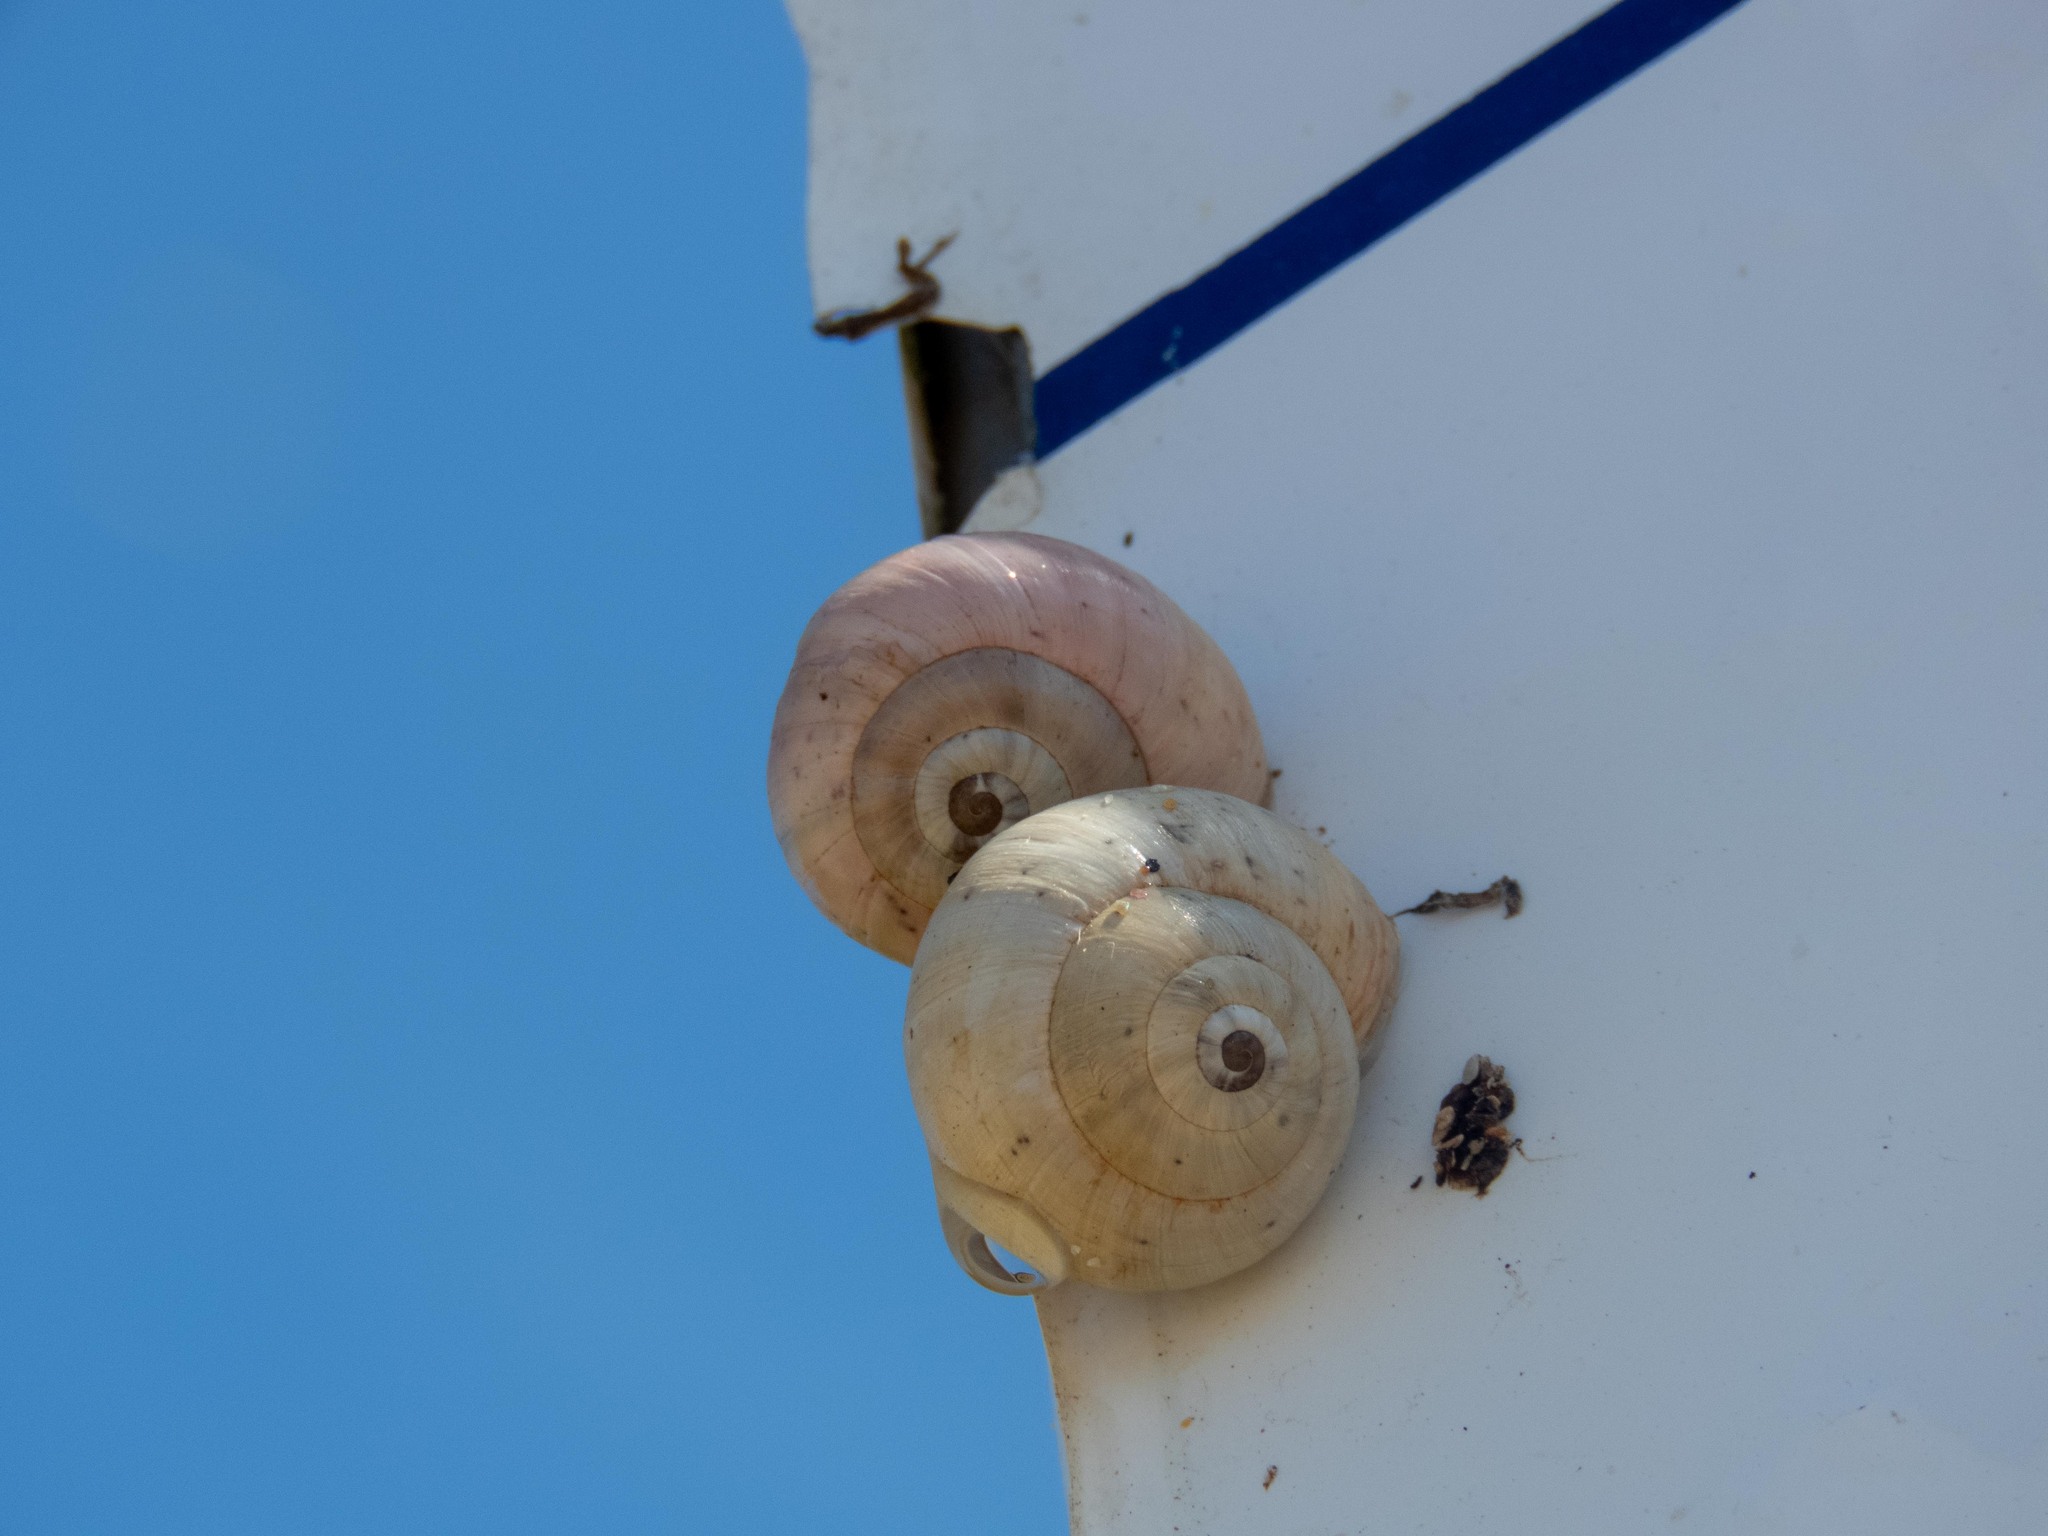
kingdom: Animalia
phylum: Mollusca
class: Gastropoda
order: Stylommatophora
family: Helicidae
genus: Theba
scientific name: Theba pisana
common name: White snail
